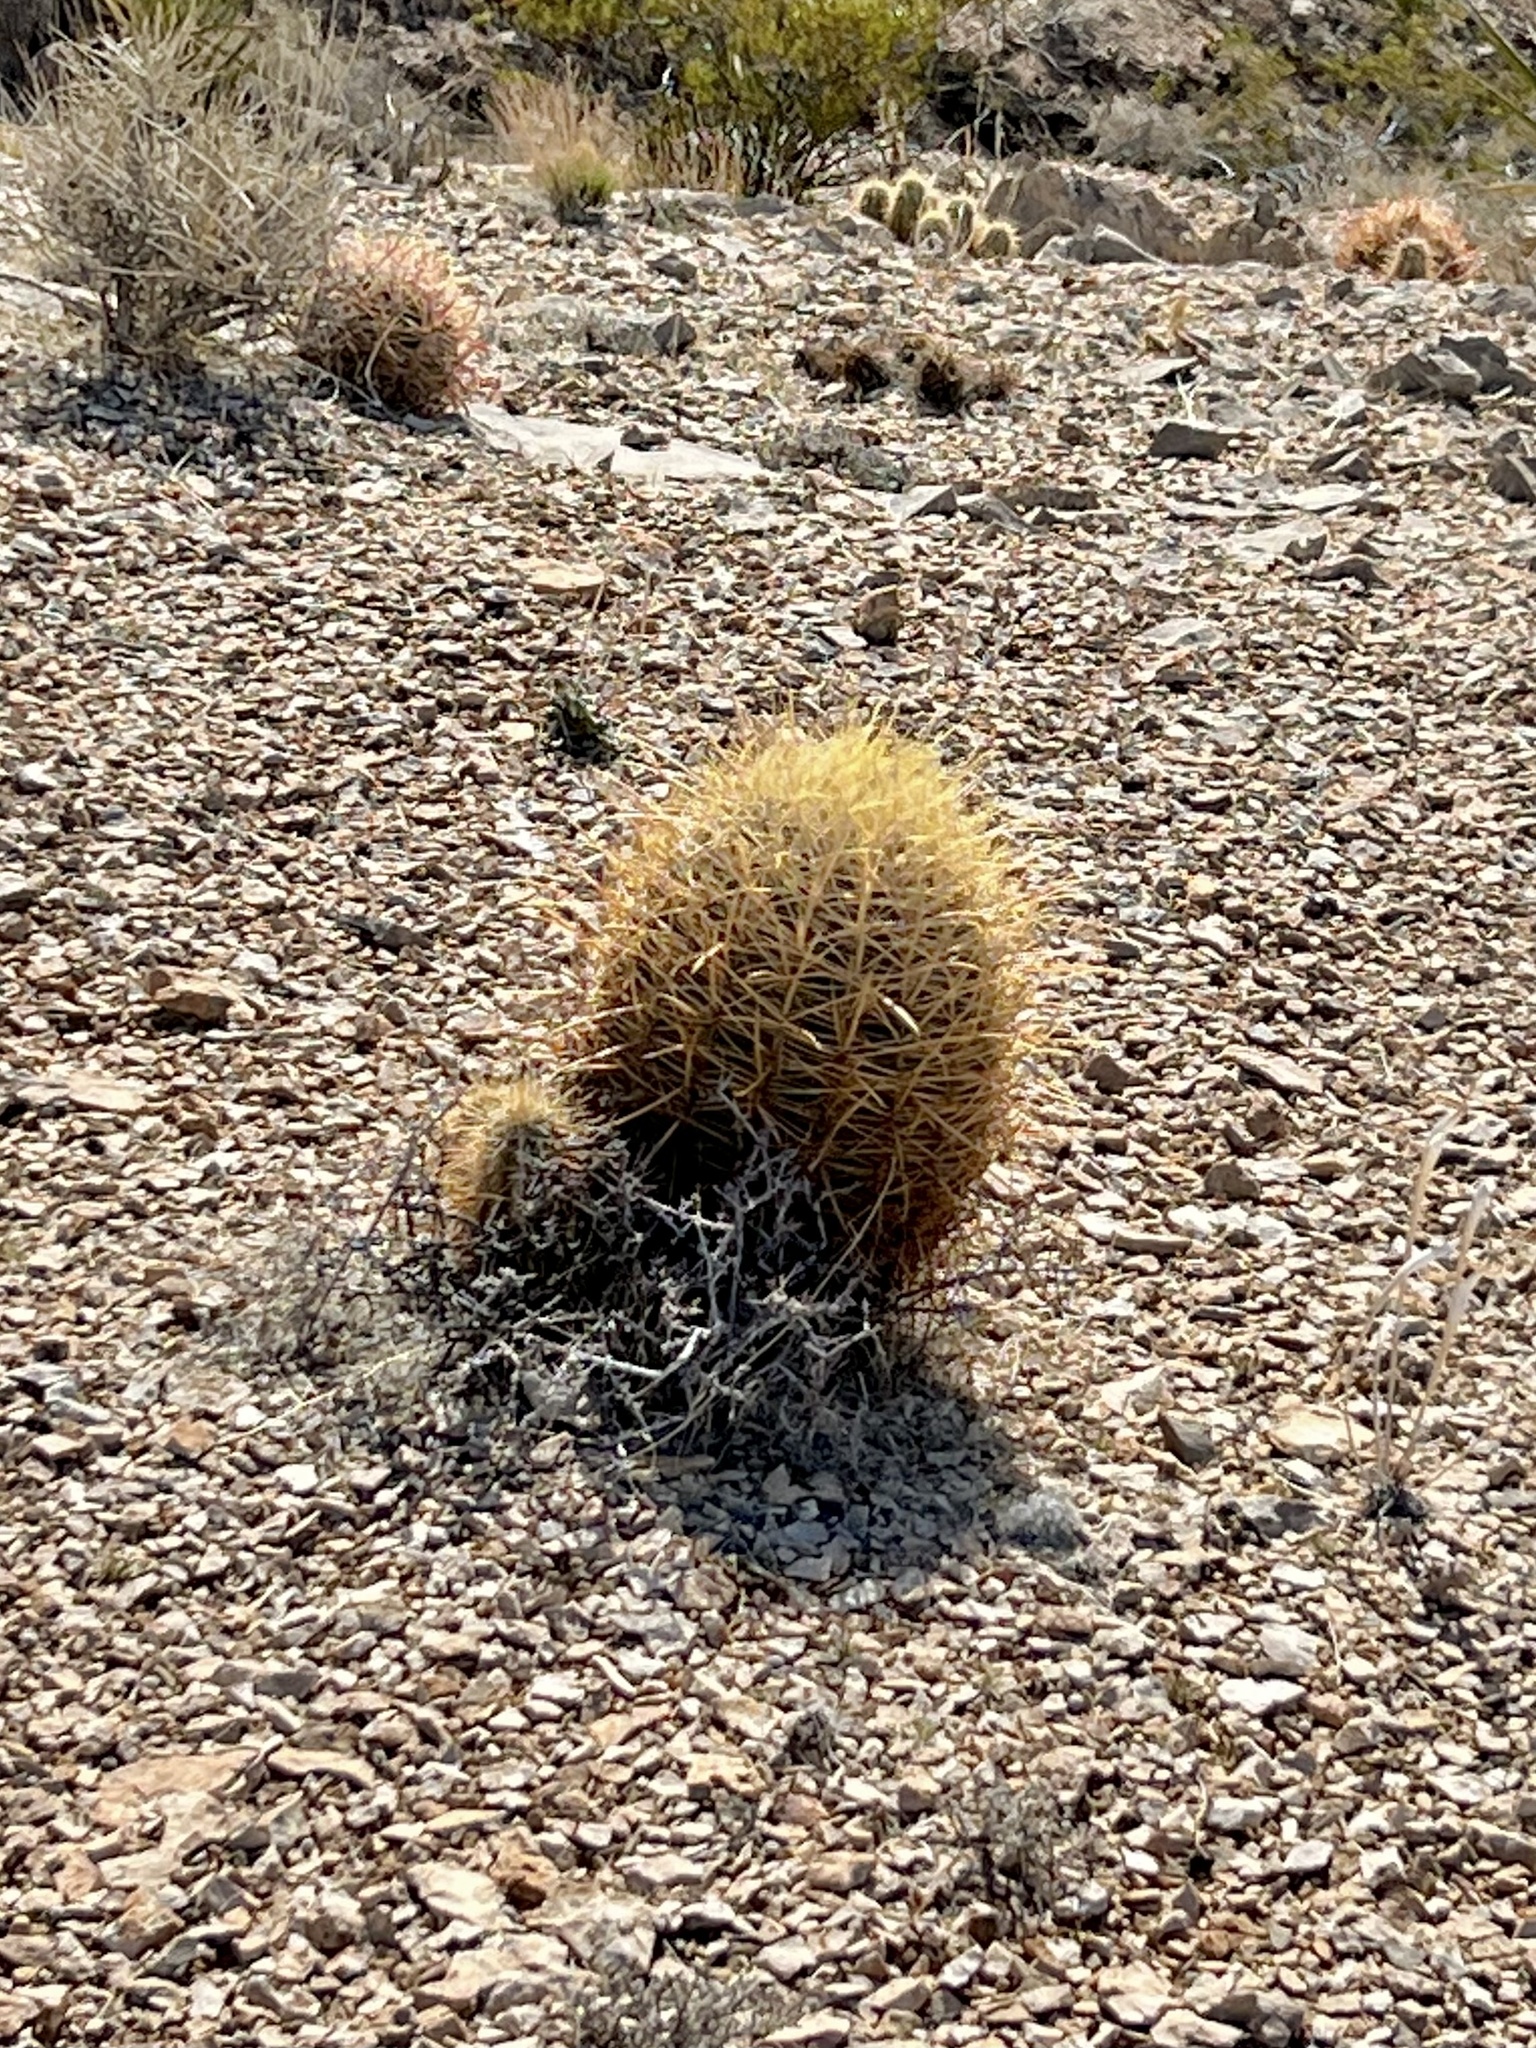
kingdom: Plantae
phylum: Tracheophyta
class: Magnoliopsida
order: Caryophyllales
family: Cactaceae
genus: Ferocactus
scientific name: Ferocactus cylindraceus
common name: California barrel cactus
